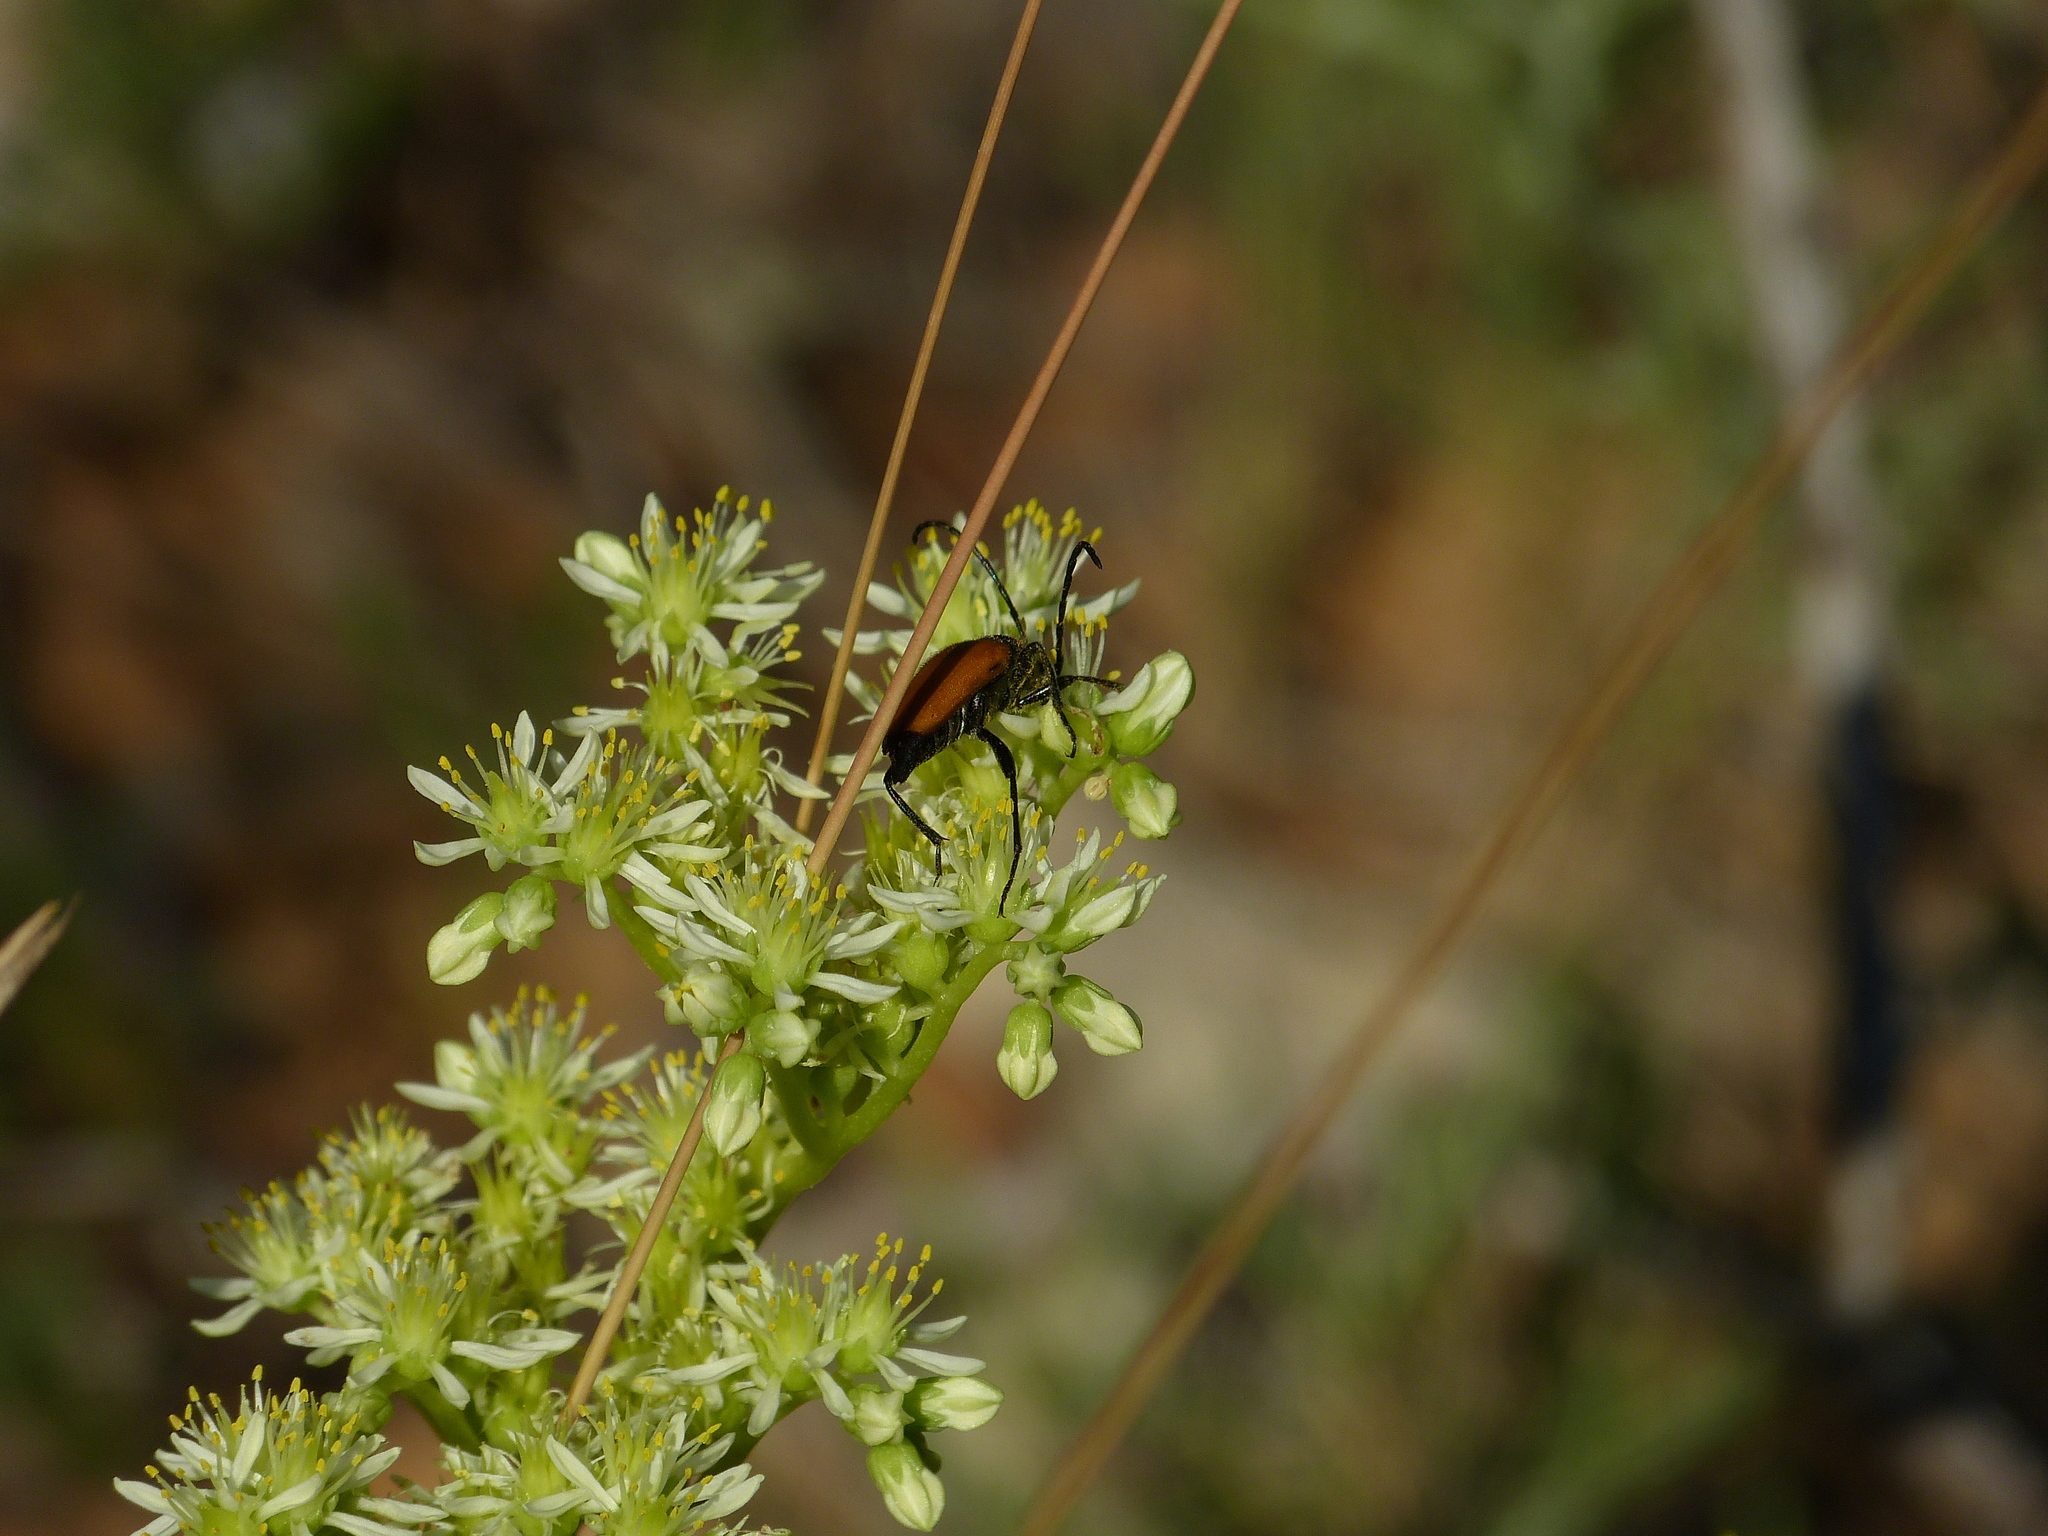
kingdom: Animalia
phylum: Arthropoda
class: Insecta
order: Coleoptera
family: Cerambycidae
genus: Paracorymbia
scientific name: Paracorymbia fulva
